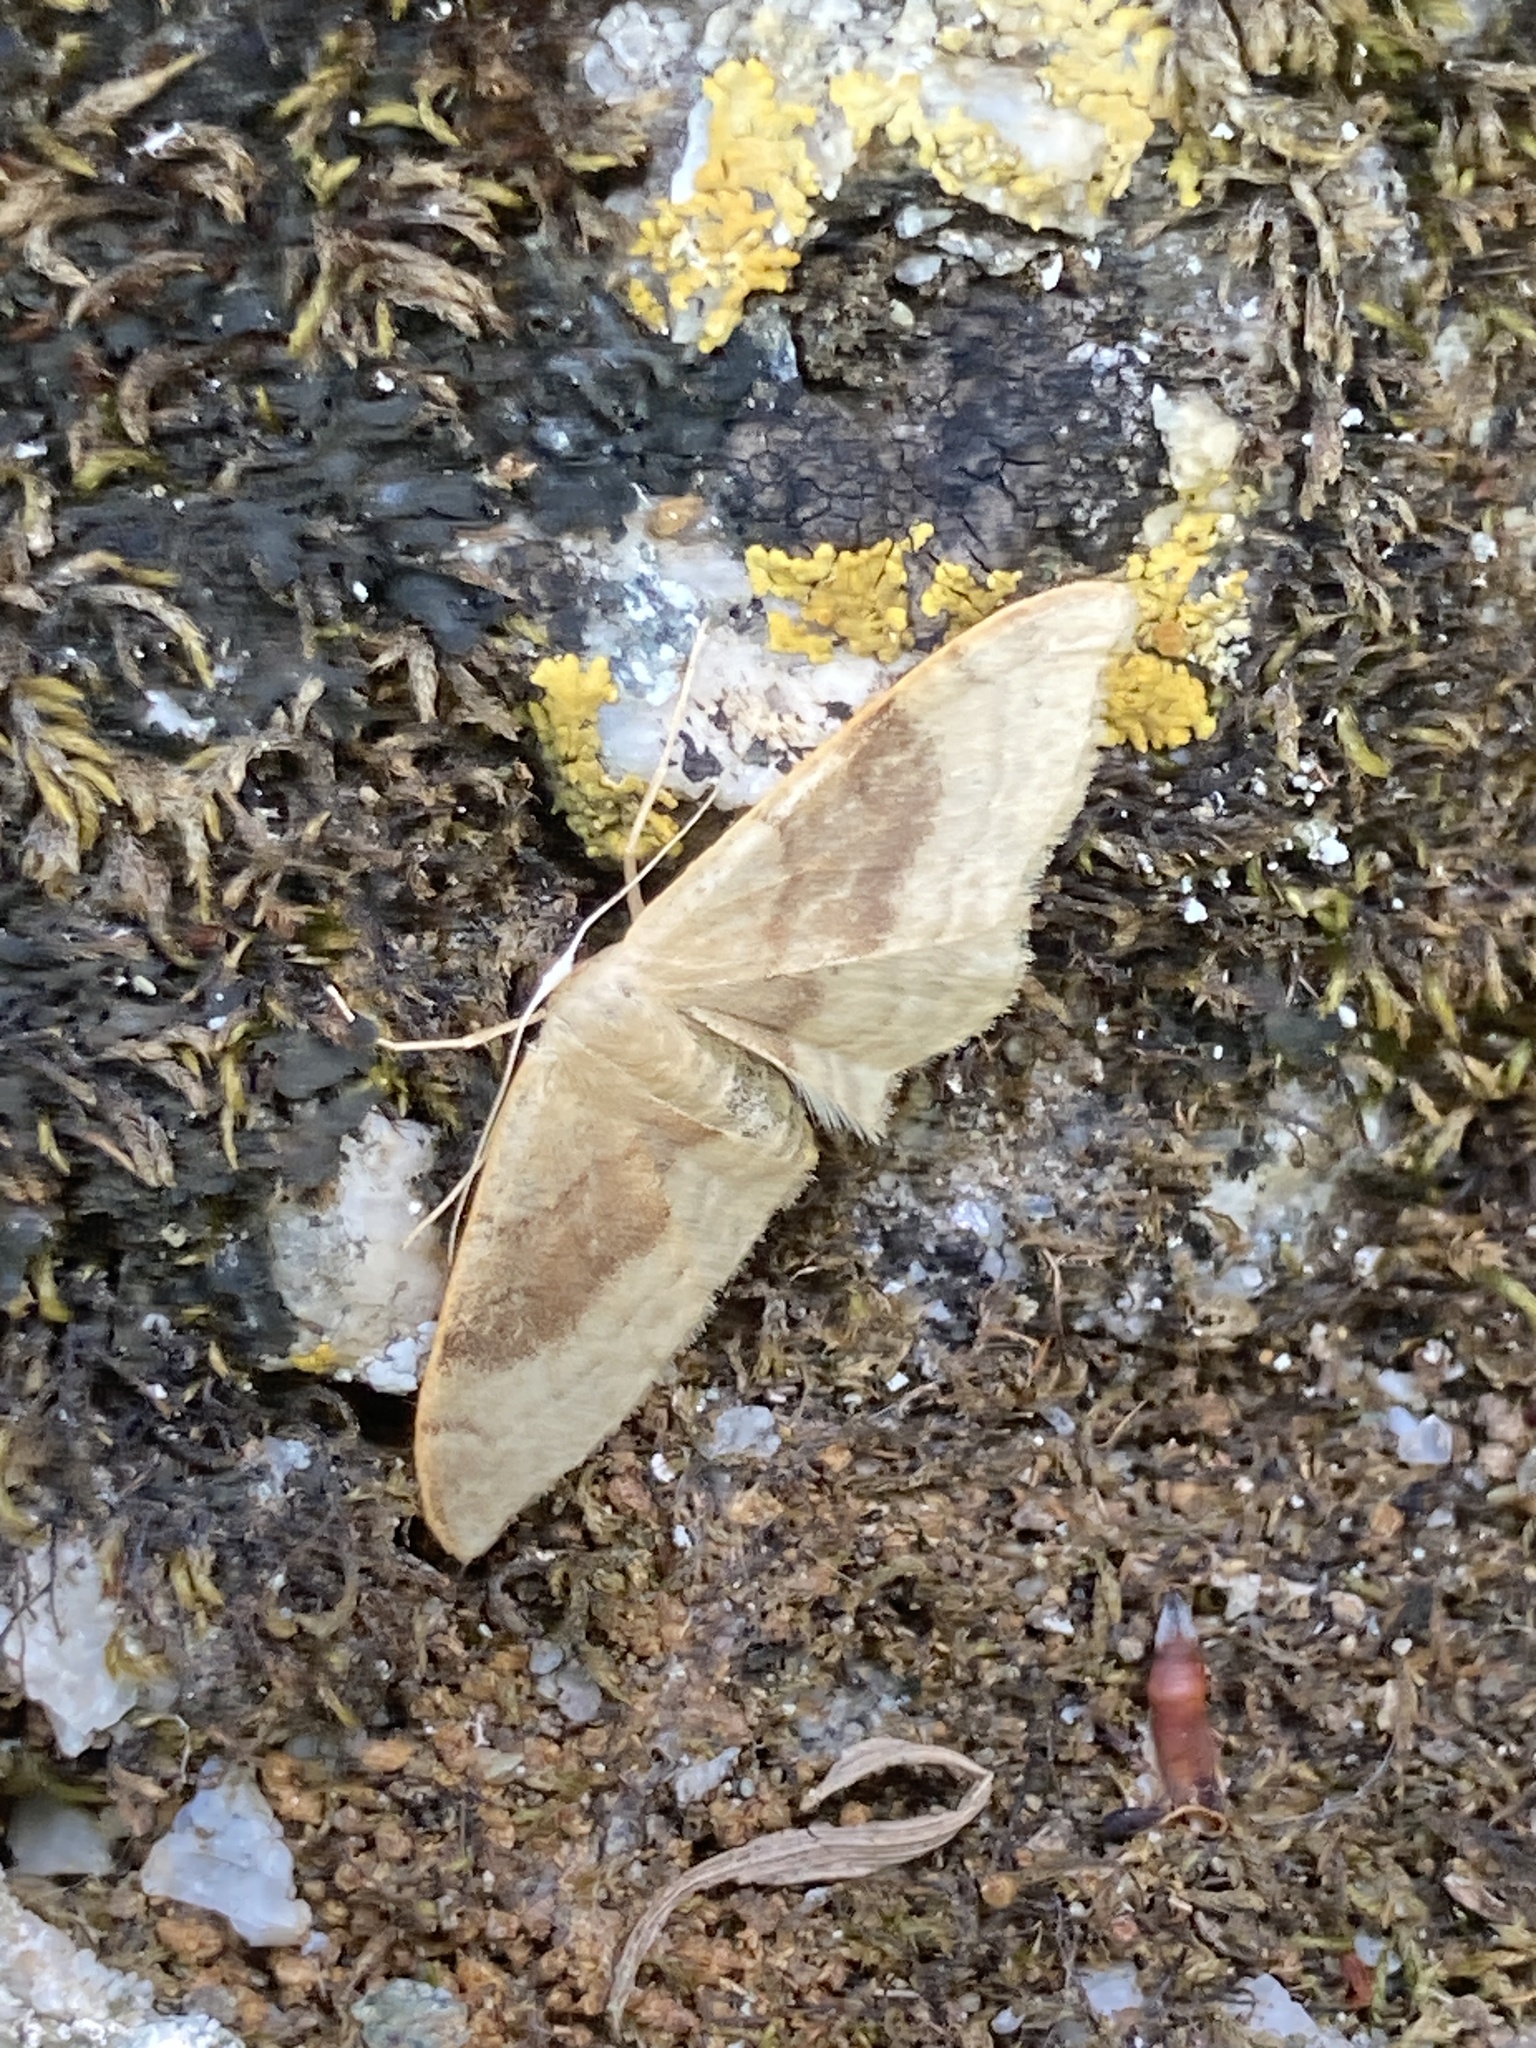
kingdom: Animalia
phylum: Arthropoda
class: Insecta
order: Lepidoptera
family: Geometridae
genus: Idaea
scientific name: Idaea degeneraria
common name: Portland ribbon wave
